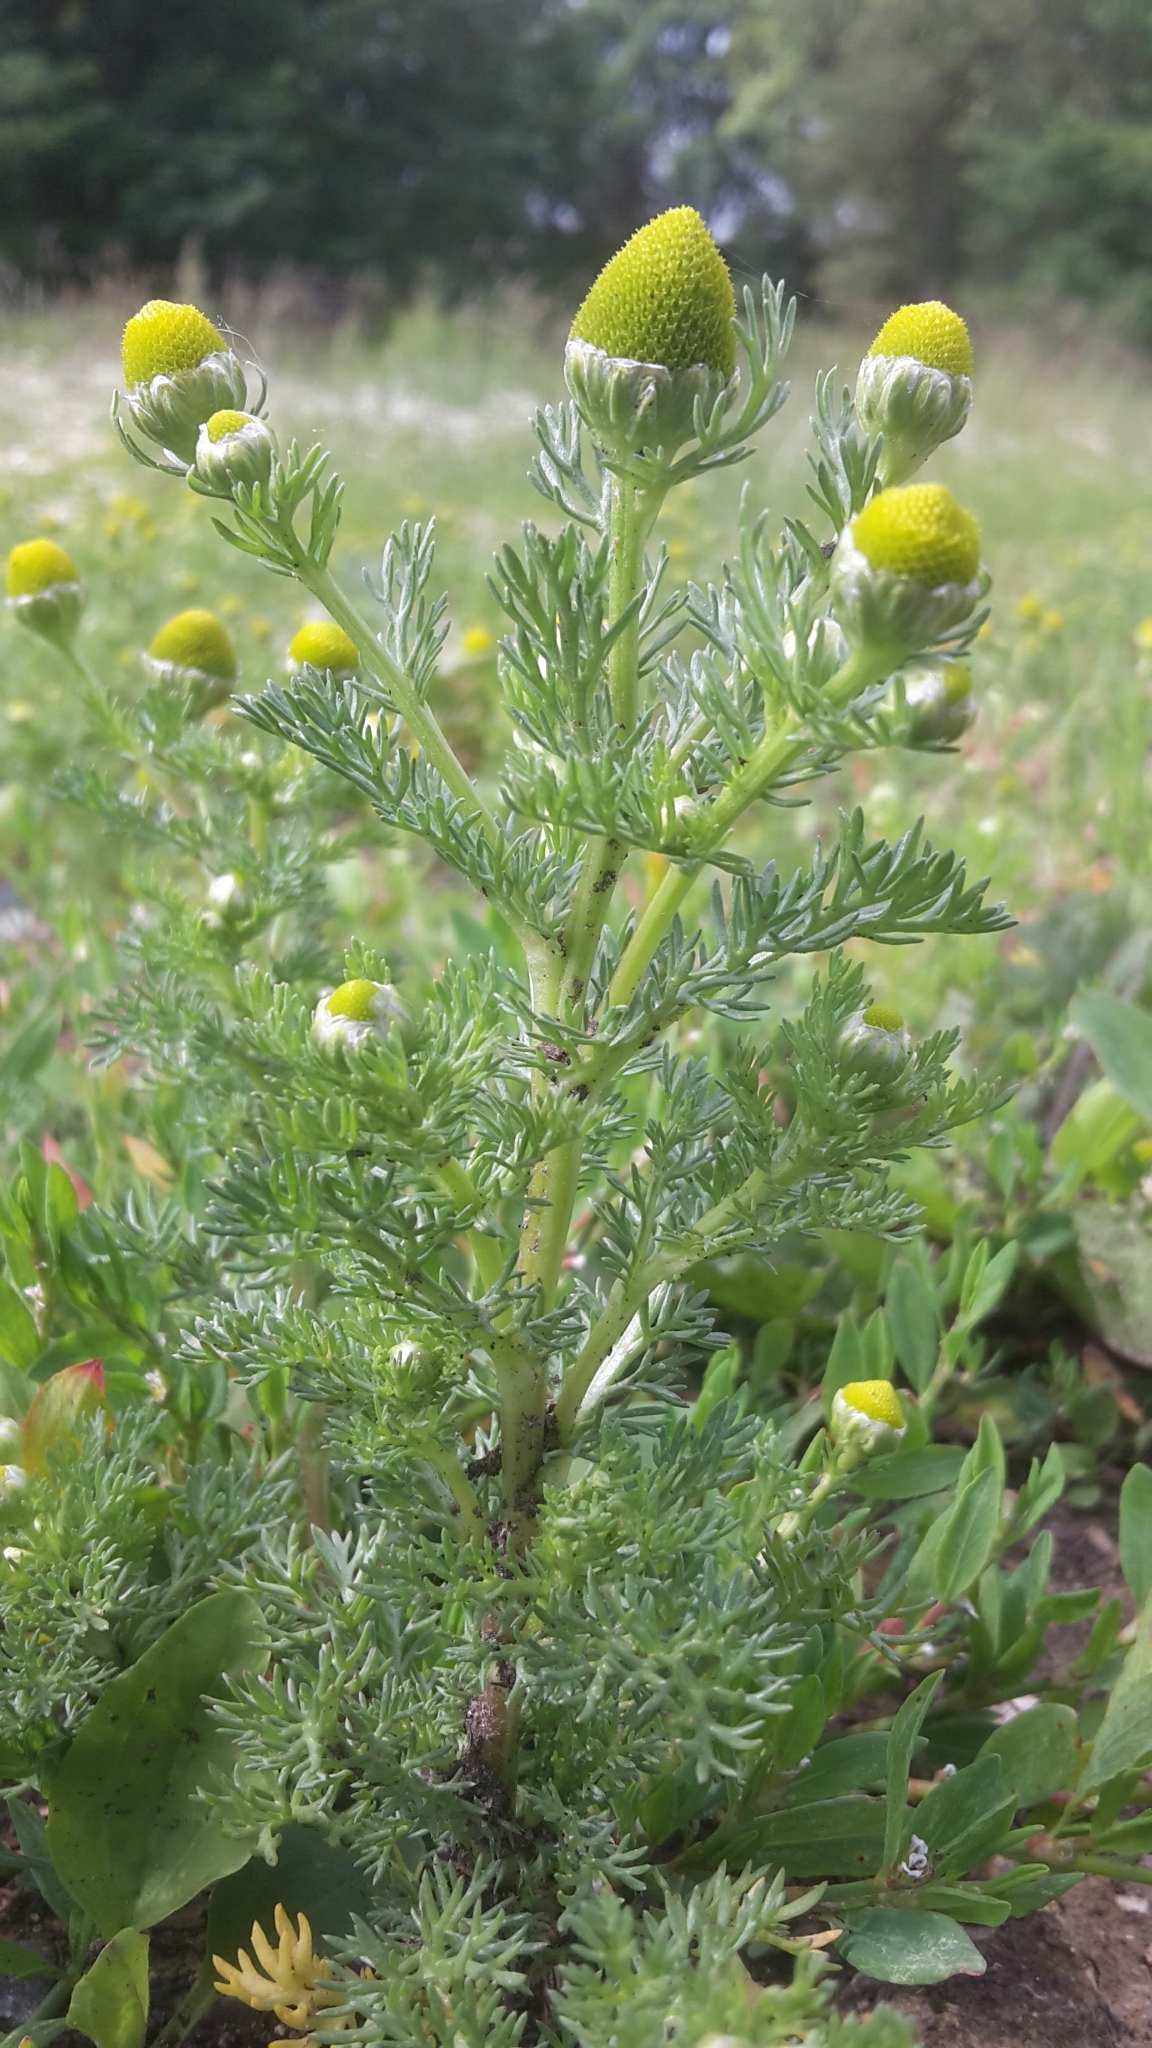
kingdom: Plantae
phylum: Tracheophyta
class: Magnoliopsida
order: Asterales
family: Asteraceae
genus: Matricaria
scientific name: Matricaria discoidea
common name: Disc mayweed
